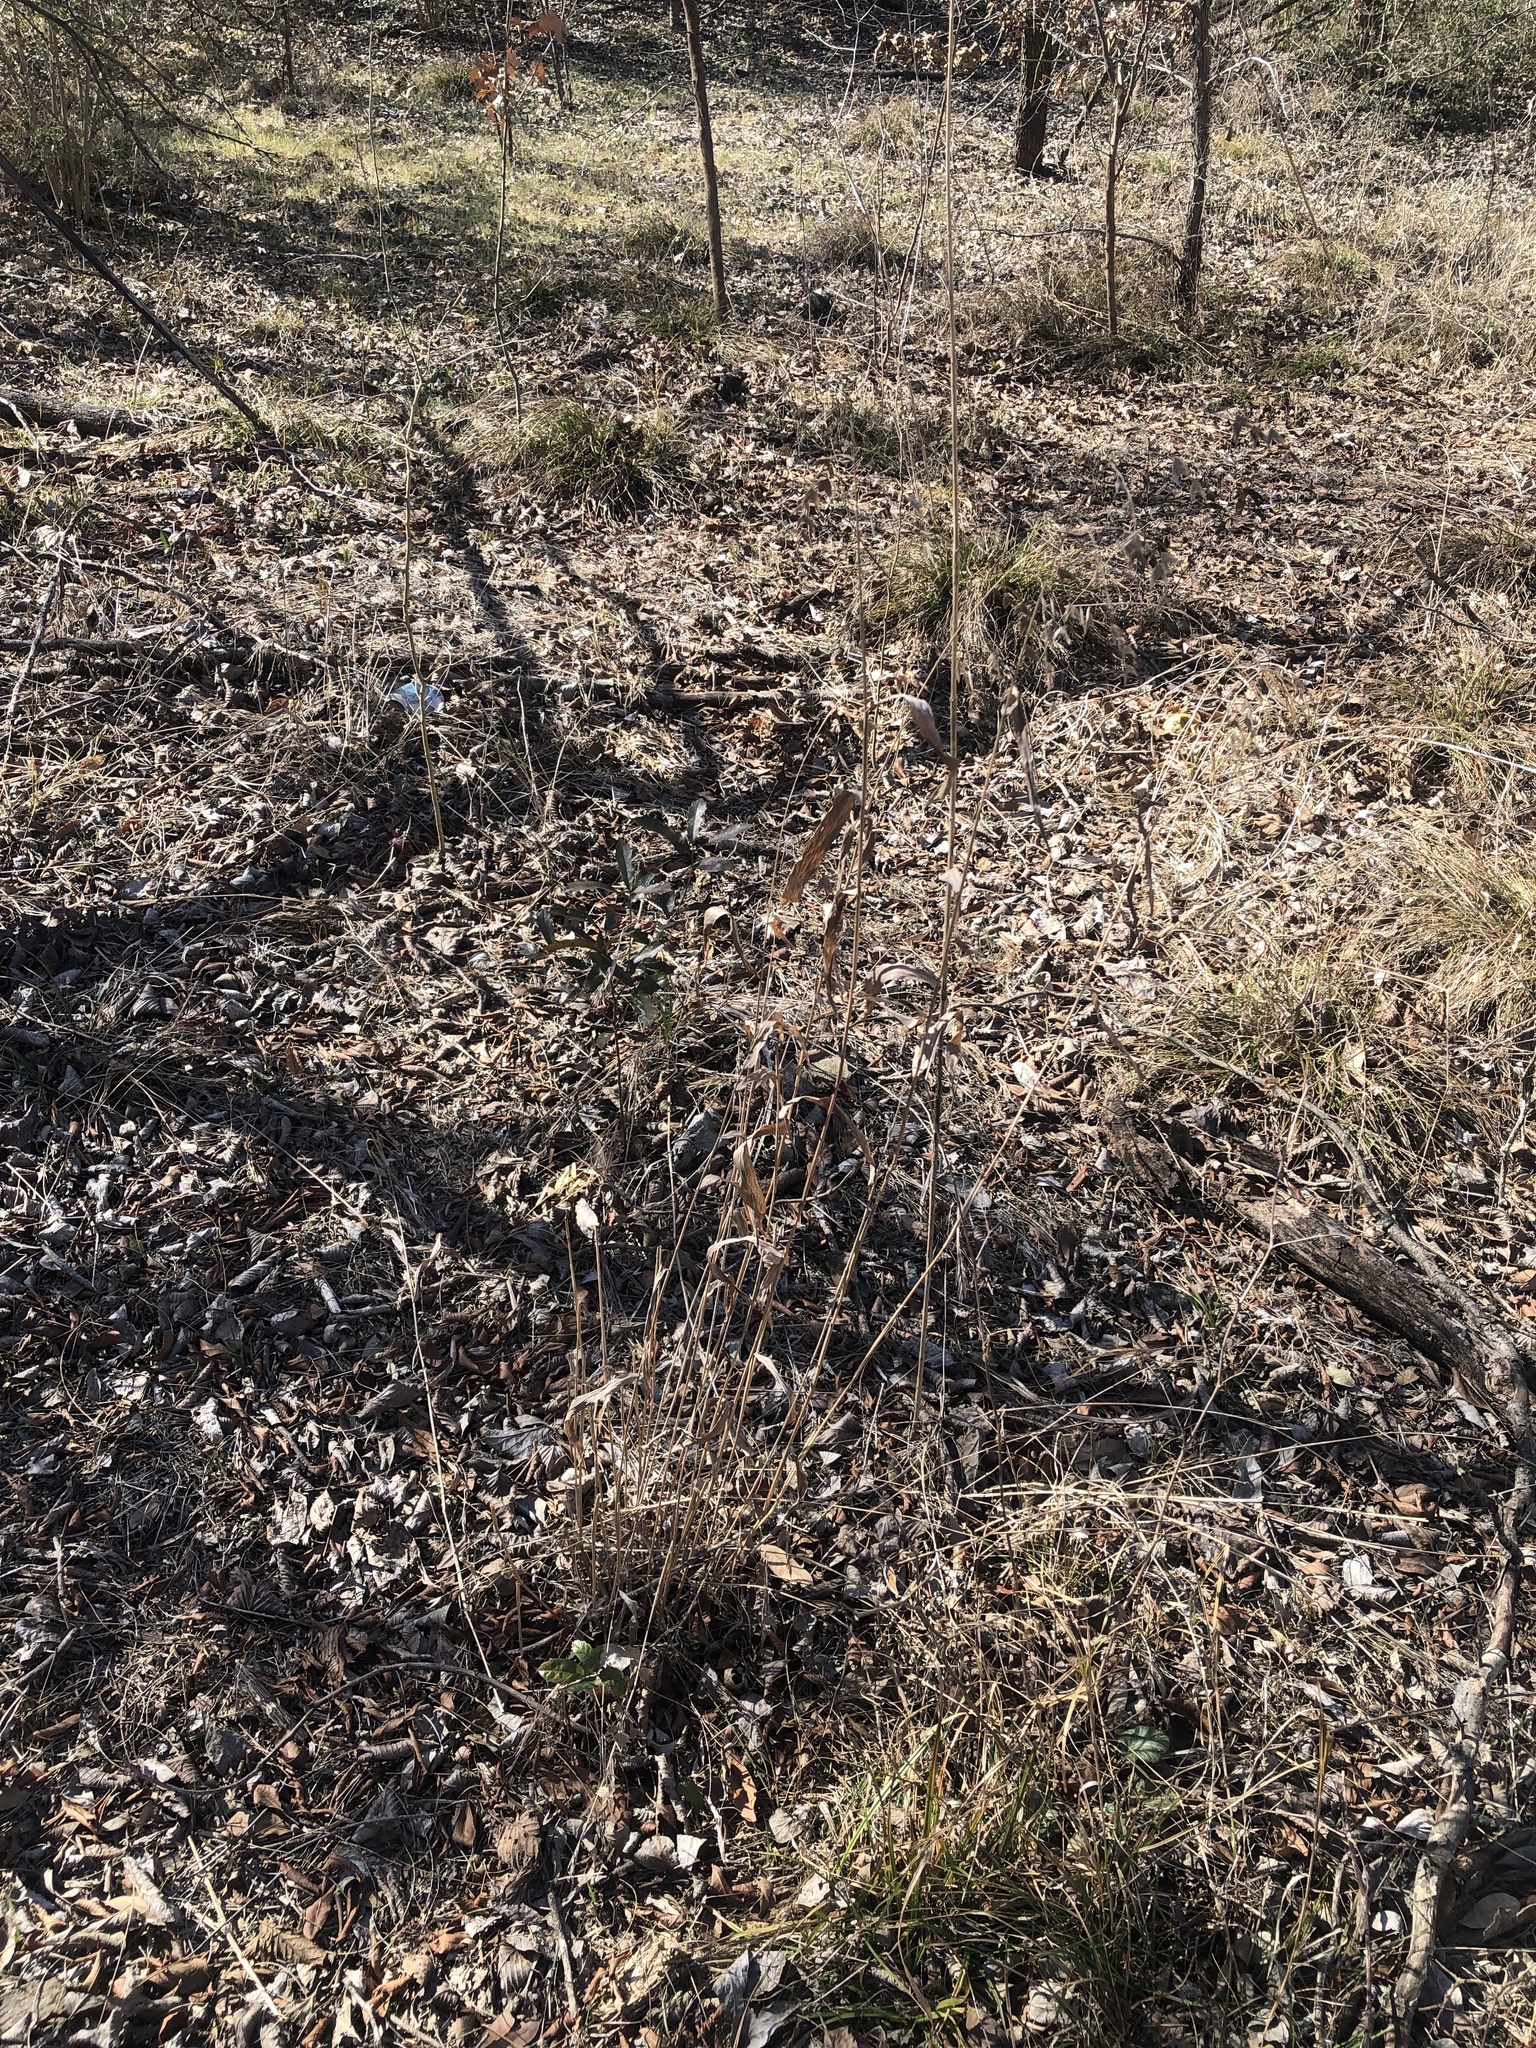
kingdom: Plantae
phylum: Tracheophyta
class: Liliopsida
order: Poales
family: Poaceae
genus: Chasmanthium
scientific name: Chasmanthium latifolium
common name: Broad-leaved chasmanthium
